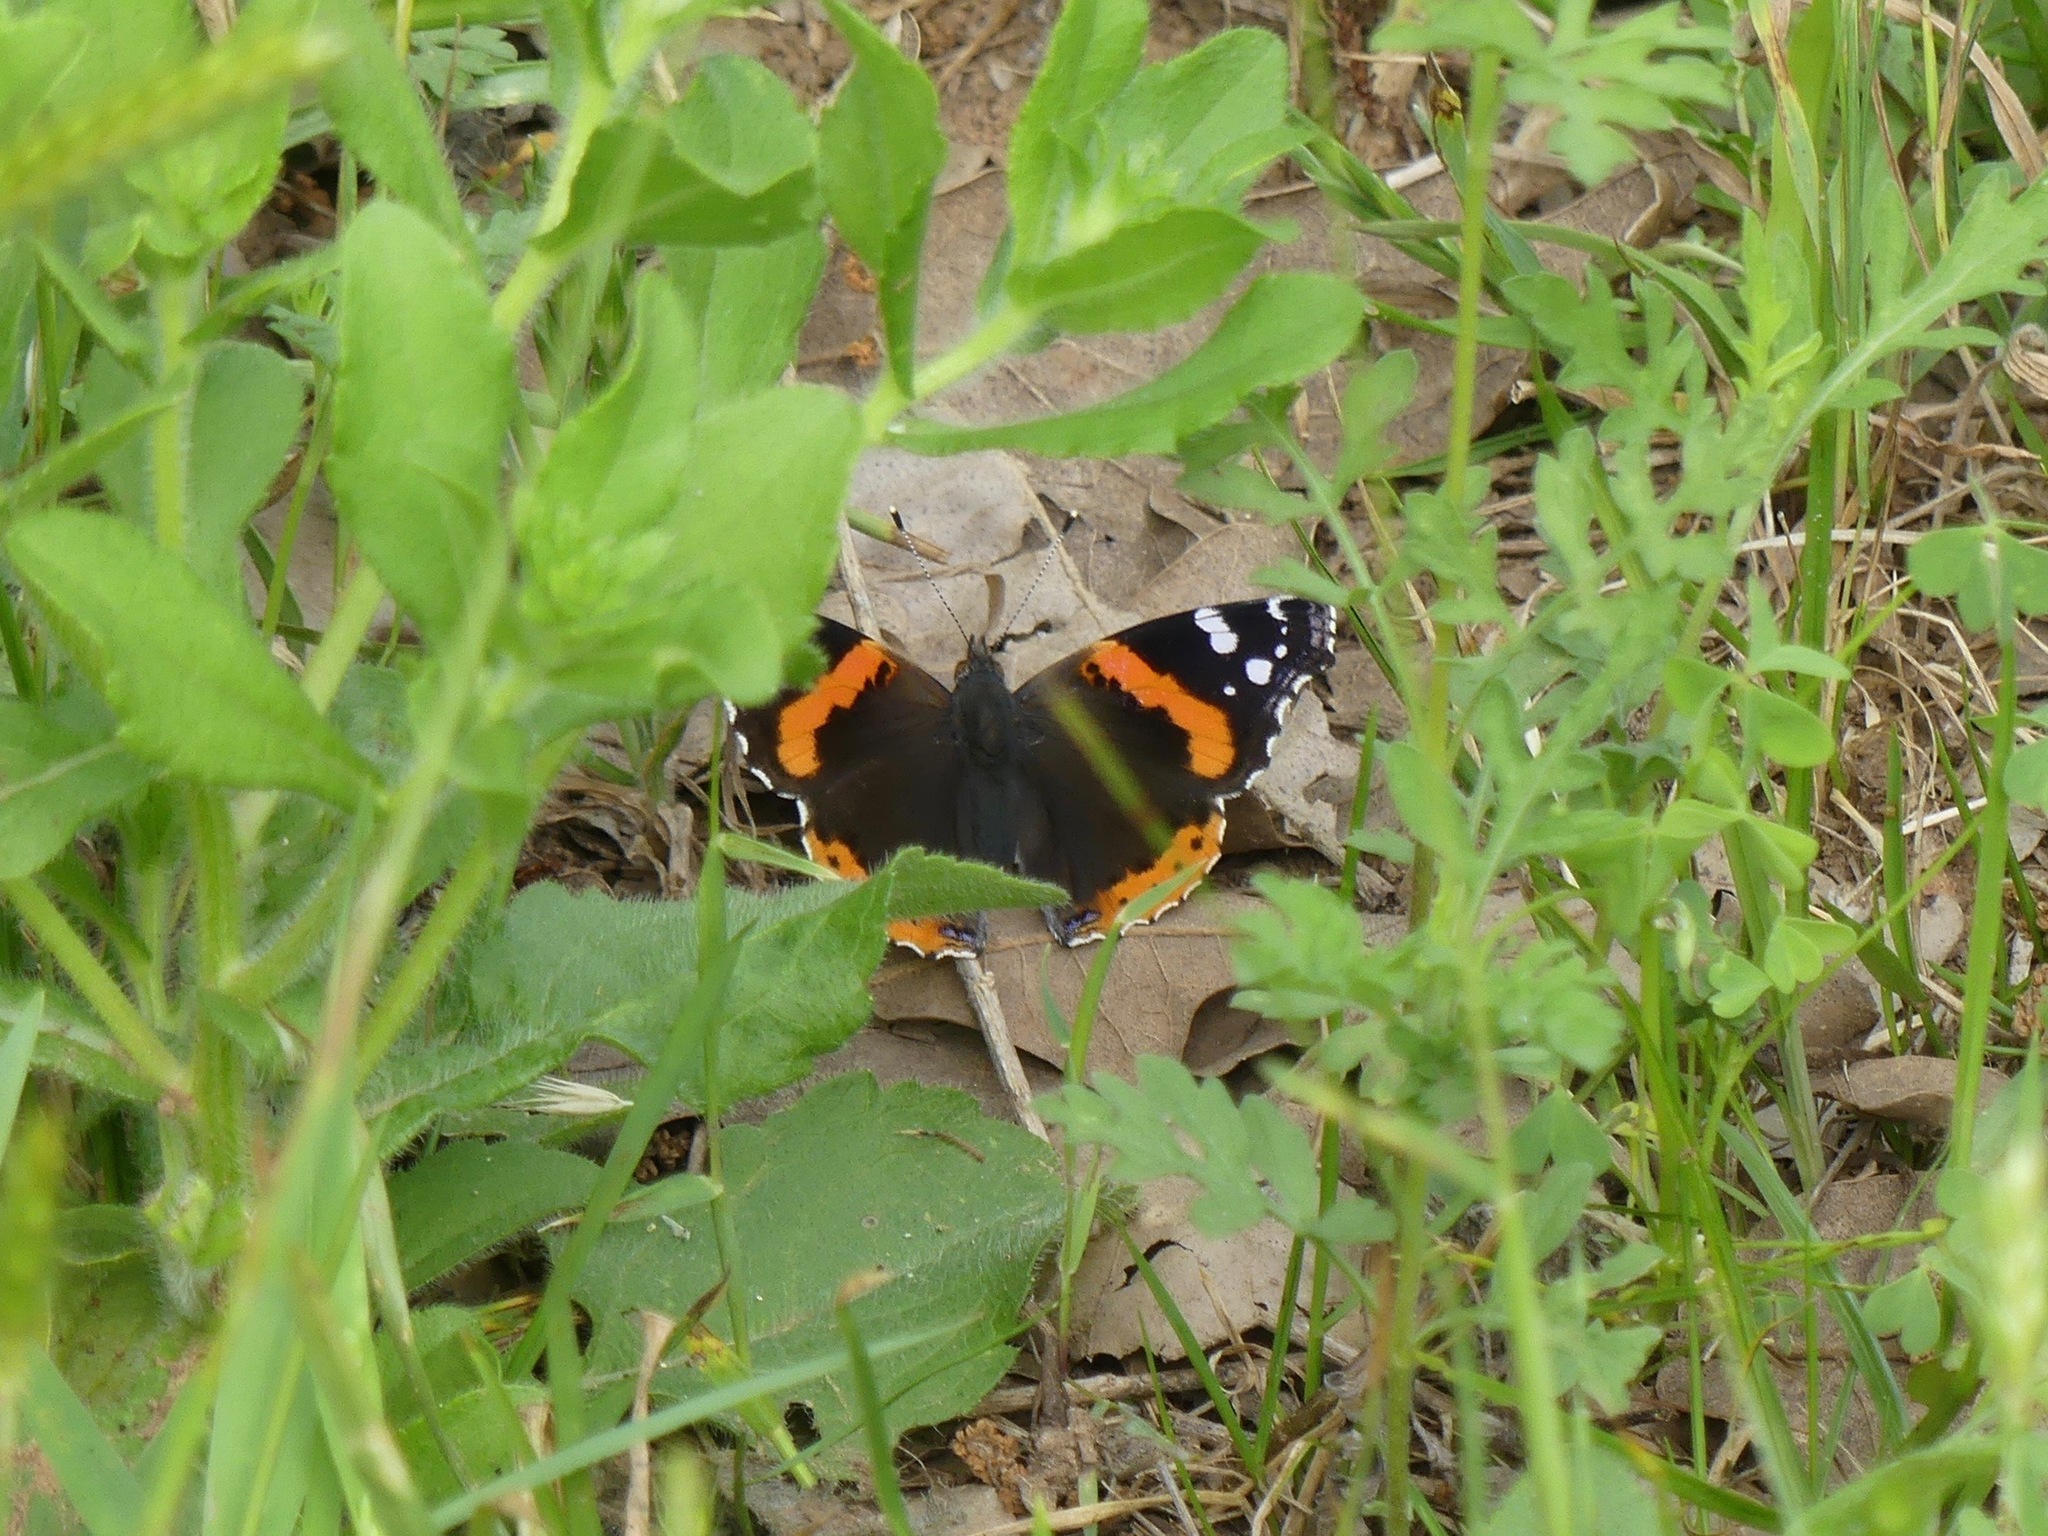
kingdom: Animalia
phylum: Arthropoda
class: Insecta
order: Lepidoptera
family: Nymphalidae
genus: Vanessa
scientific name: Vanessa atalanta
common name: Red admiral
